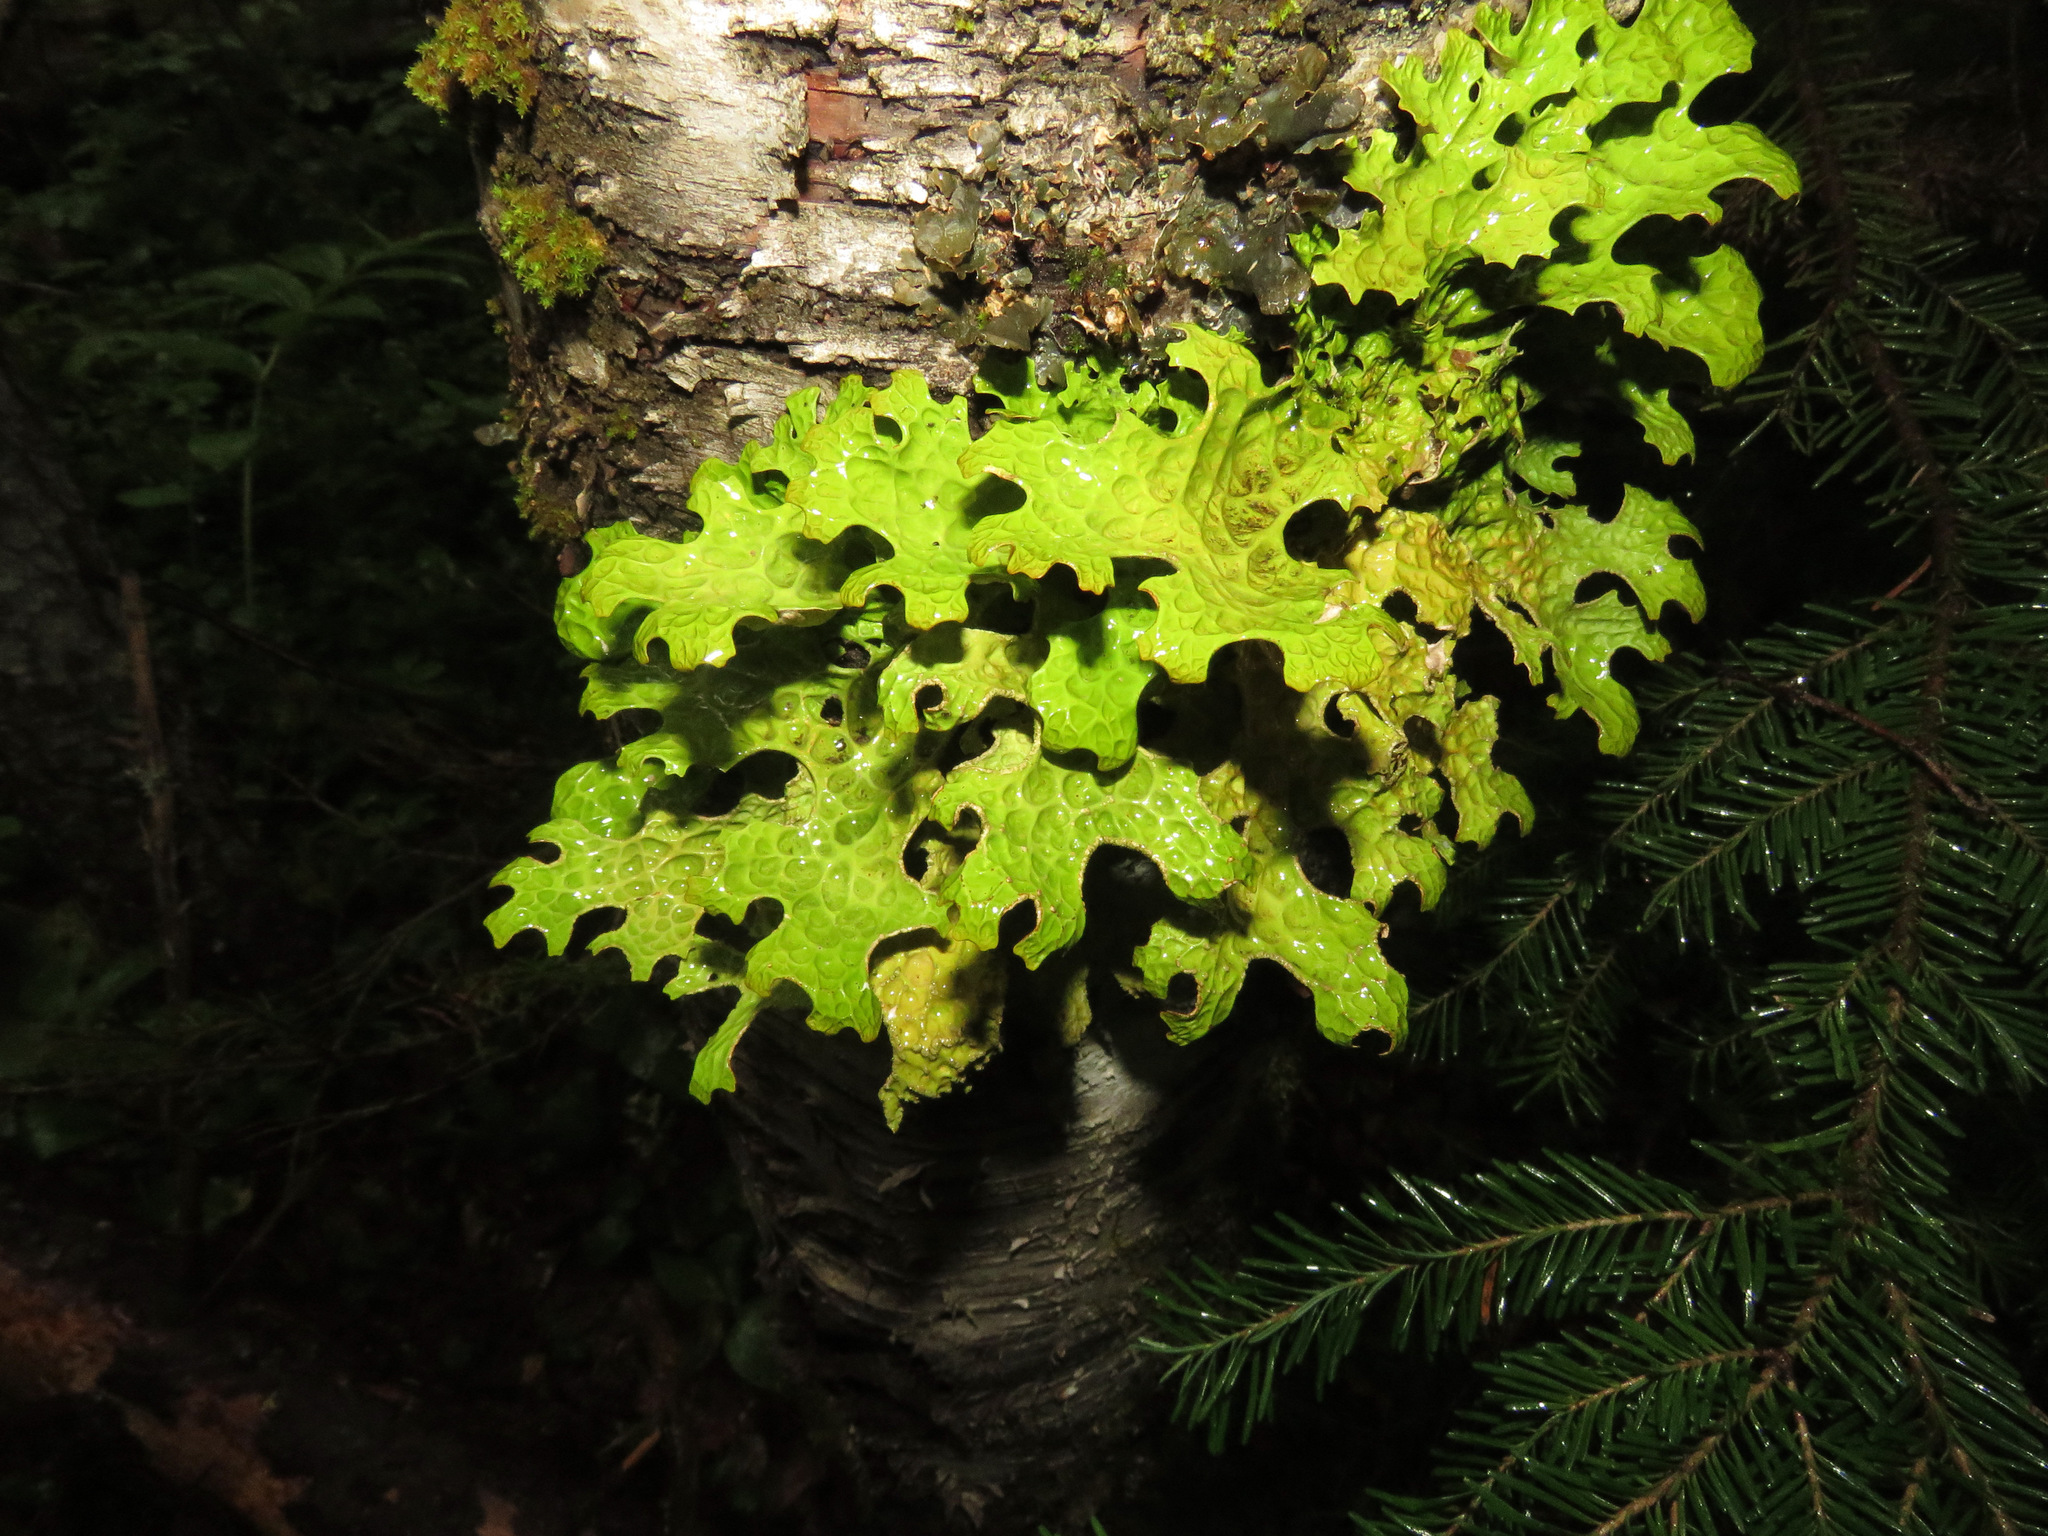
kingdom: Fungi
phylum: Ascomycota
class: Lecanoromycetes
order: Peltigerales
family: Lobariaceae
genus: Lobaria
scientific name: Lobaria pulmonaria
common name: Lungwort
